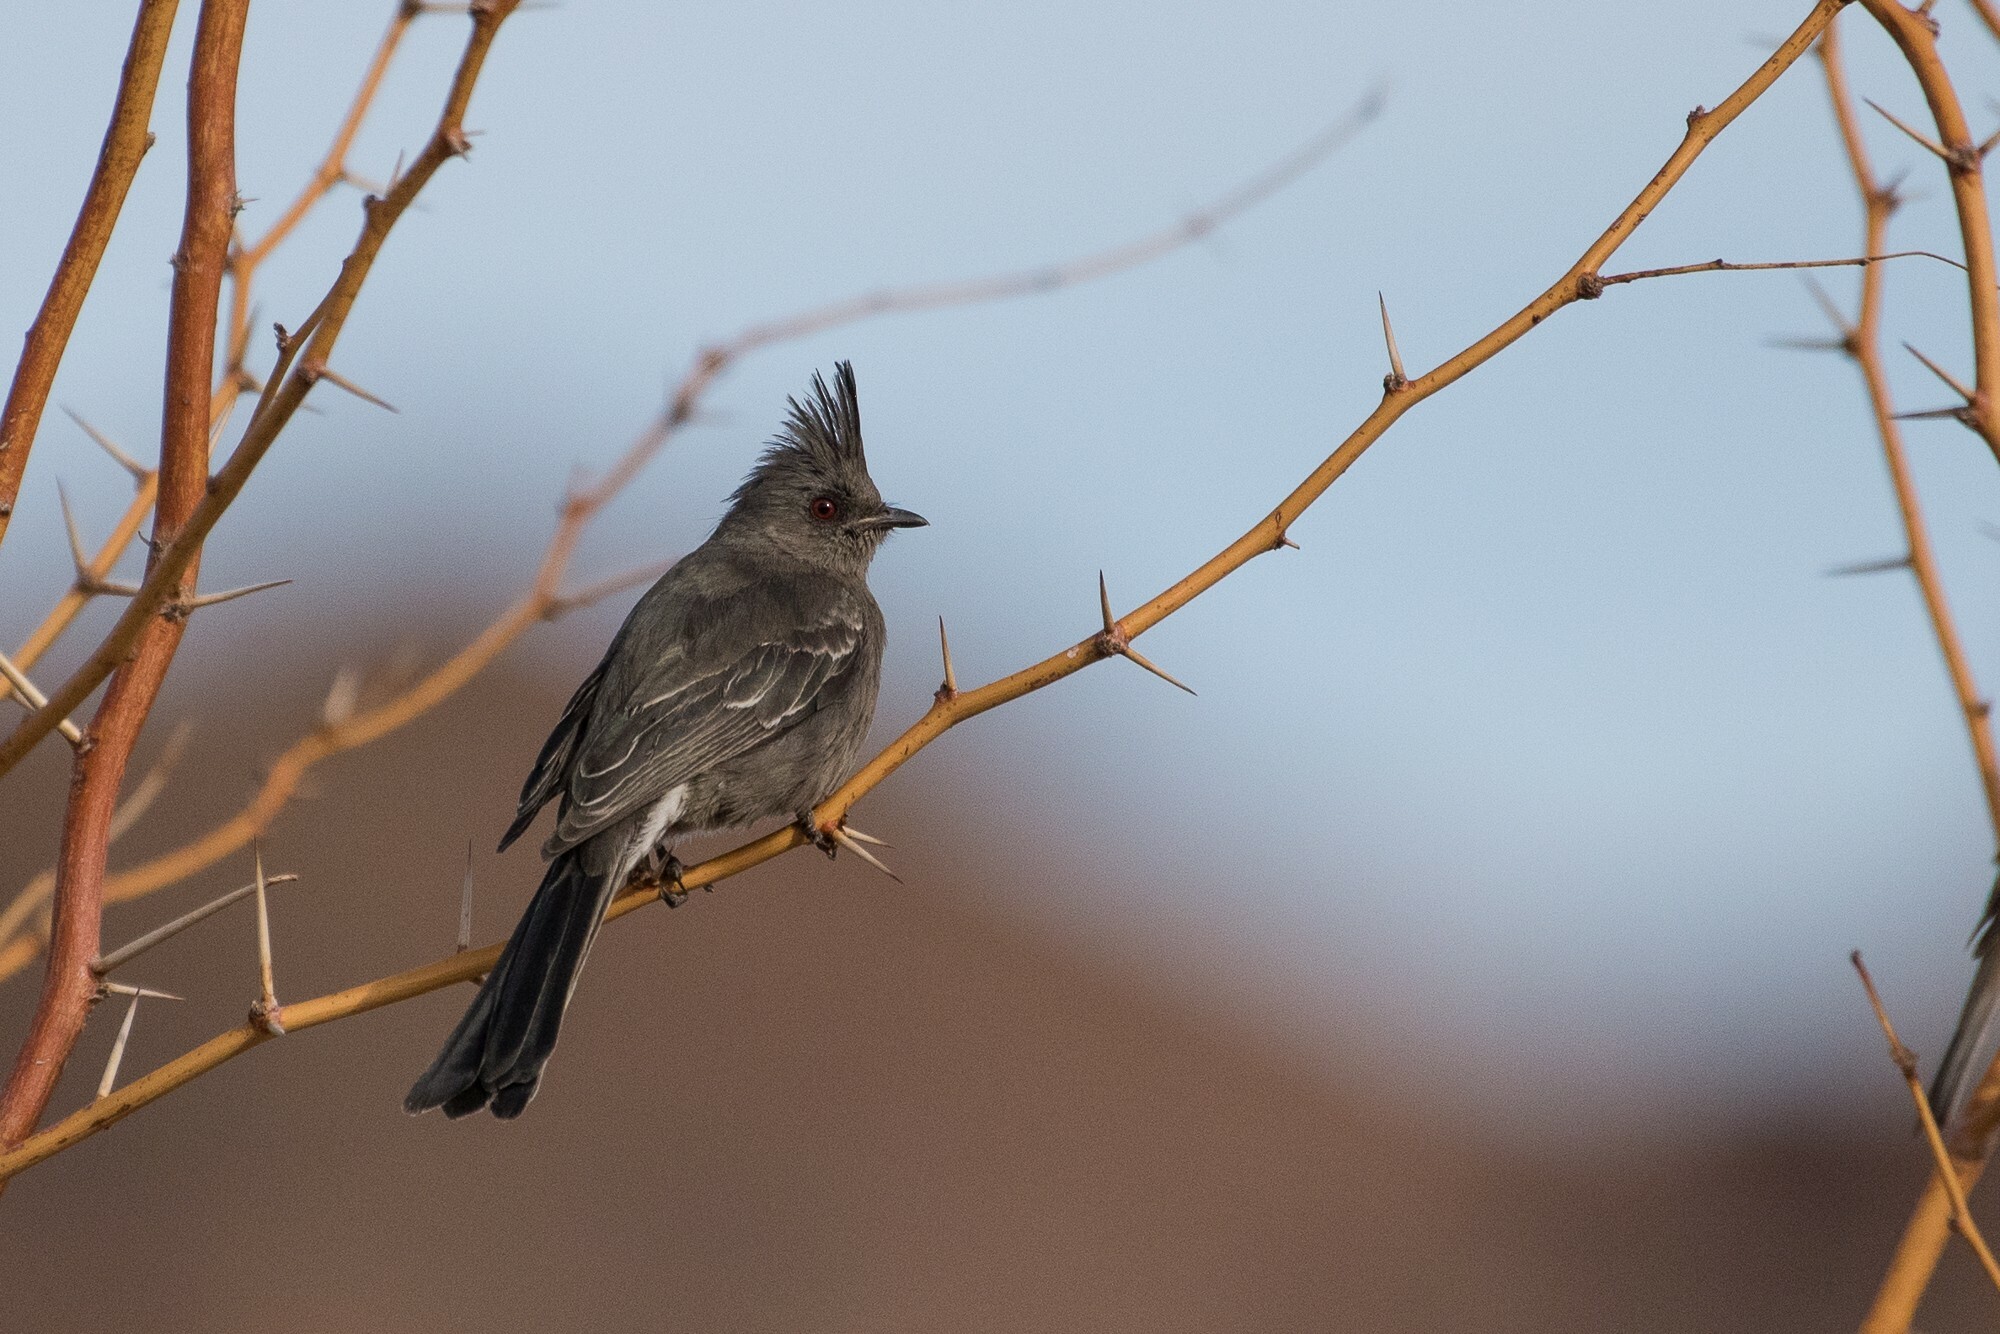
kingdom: Animalia
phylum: Chordata
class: Aves
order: Passeriformes
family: Ptilogonatidae
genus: Phainopepla
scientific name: Phainopepla nitens
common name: Phainopepla
